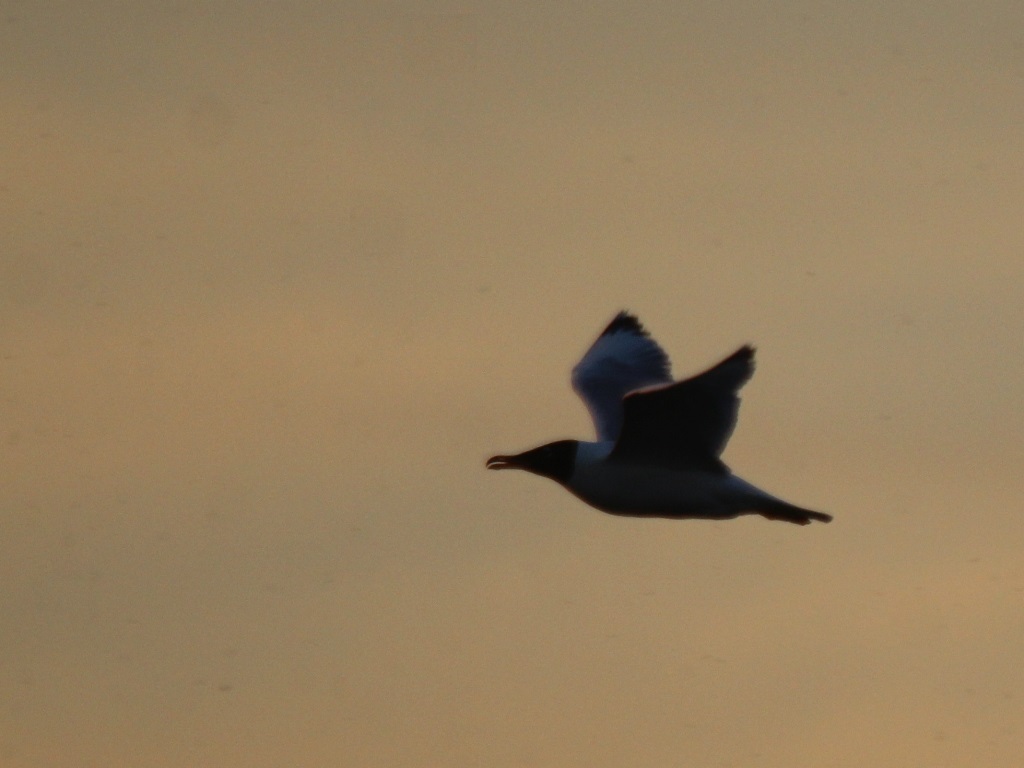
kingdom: Animalia
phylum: Chordata
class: Aves
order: Charadriiformes
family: Laridae
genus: Ichthyaetus
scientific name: Ichthyaetus ichthyaetus
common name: Pallas's gull
